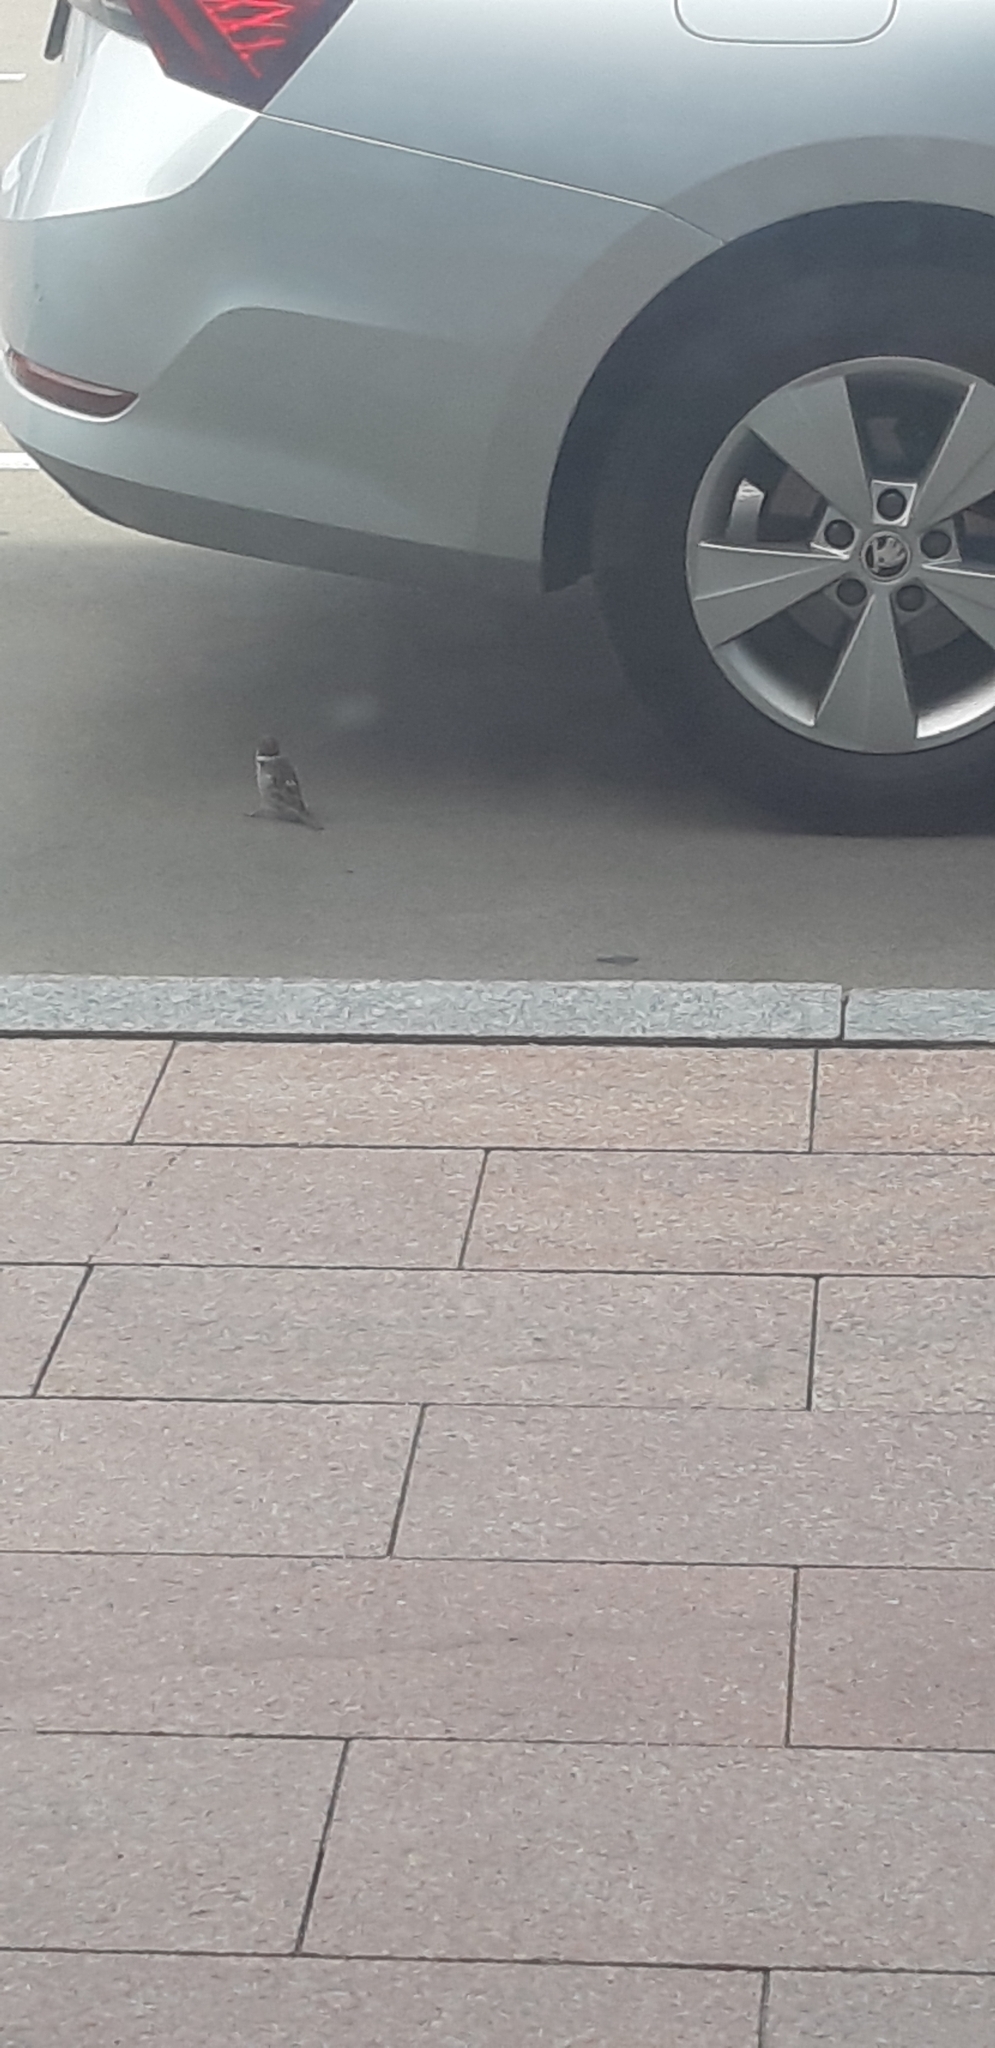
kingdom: Animalia
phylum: Chordata
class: Aves
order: Passeriformes
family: Passeridae
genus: Passer
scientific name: Passer montanus
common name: Eurasian tree sparrow
